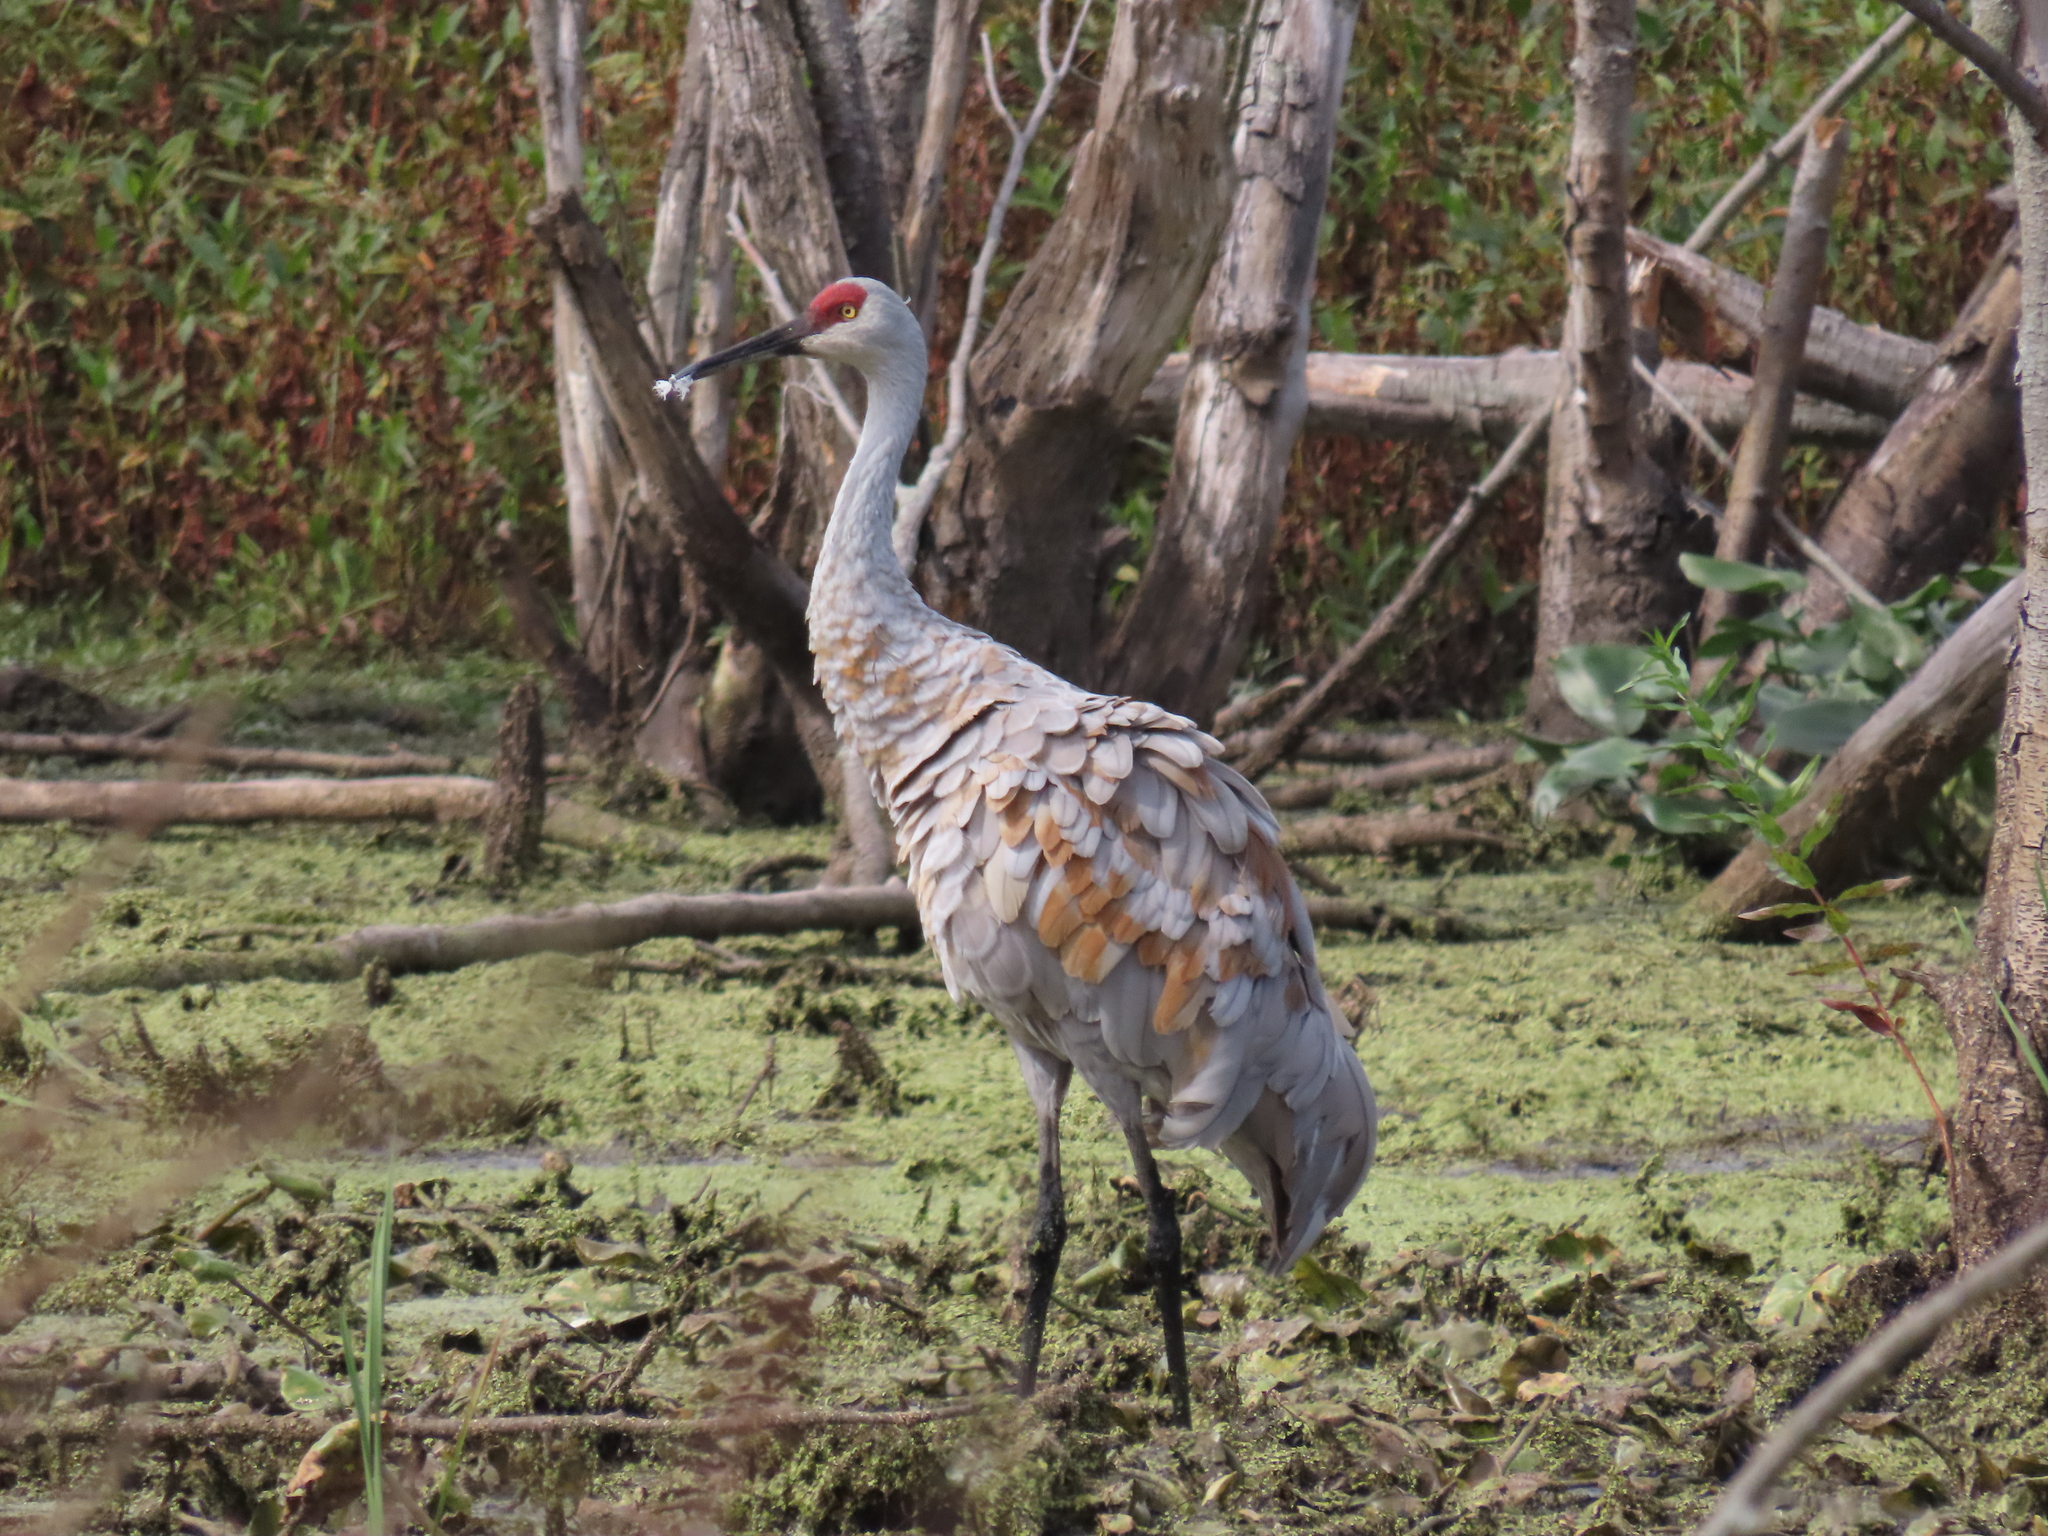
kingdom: Animalia
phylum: Chordata
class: Aves
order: Gruiformes
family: Gruidae
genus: Grus
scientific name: Grus canadensis
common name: Sandhill crane
